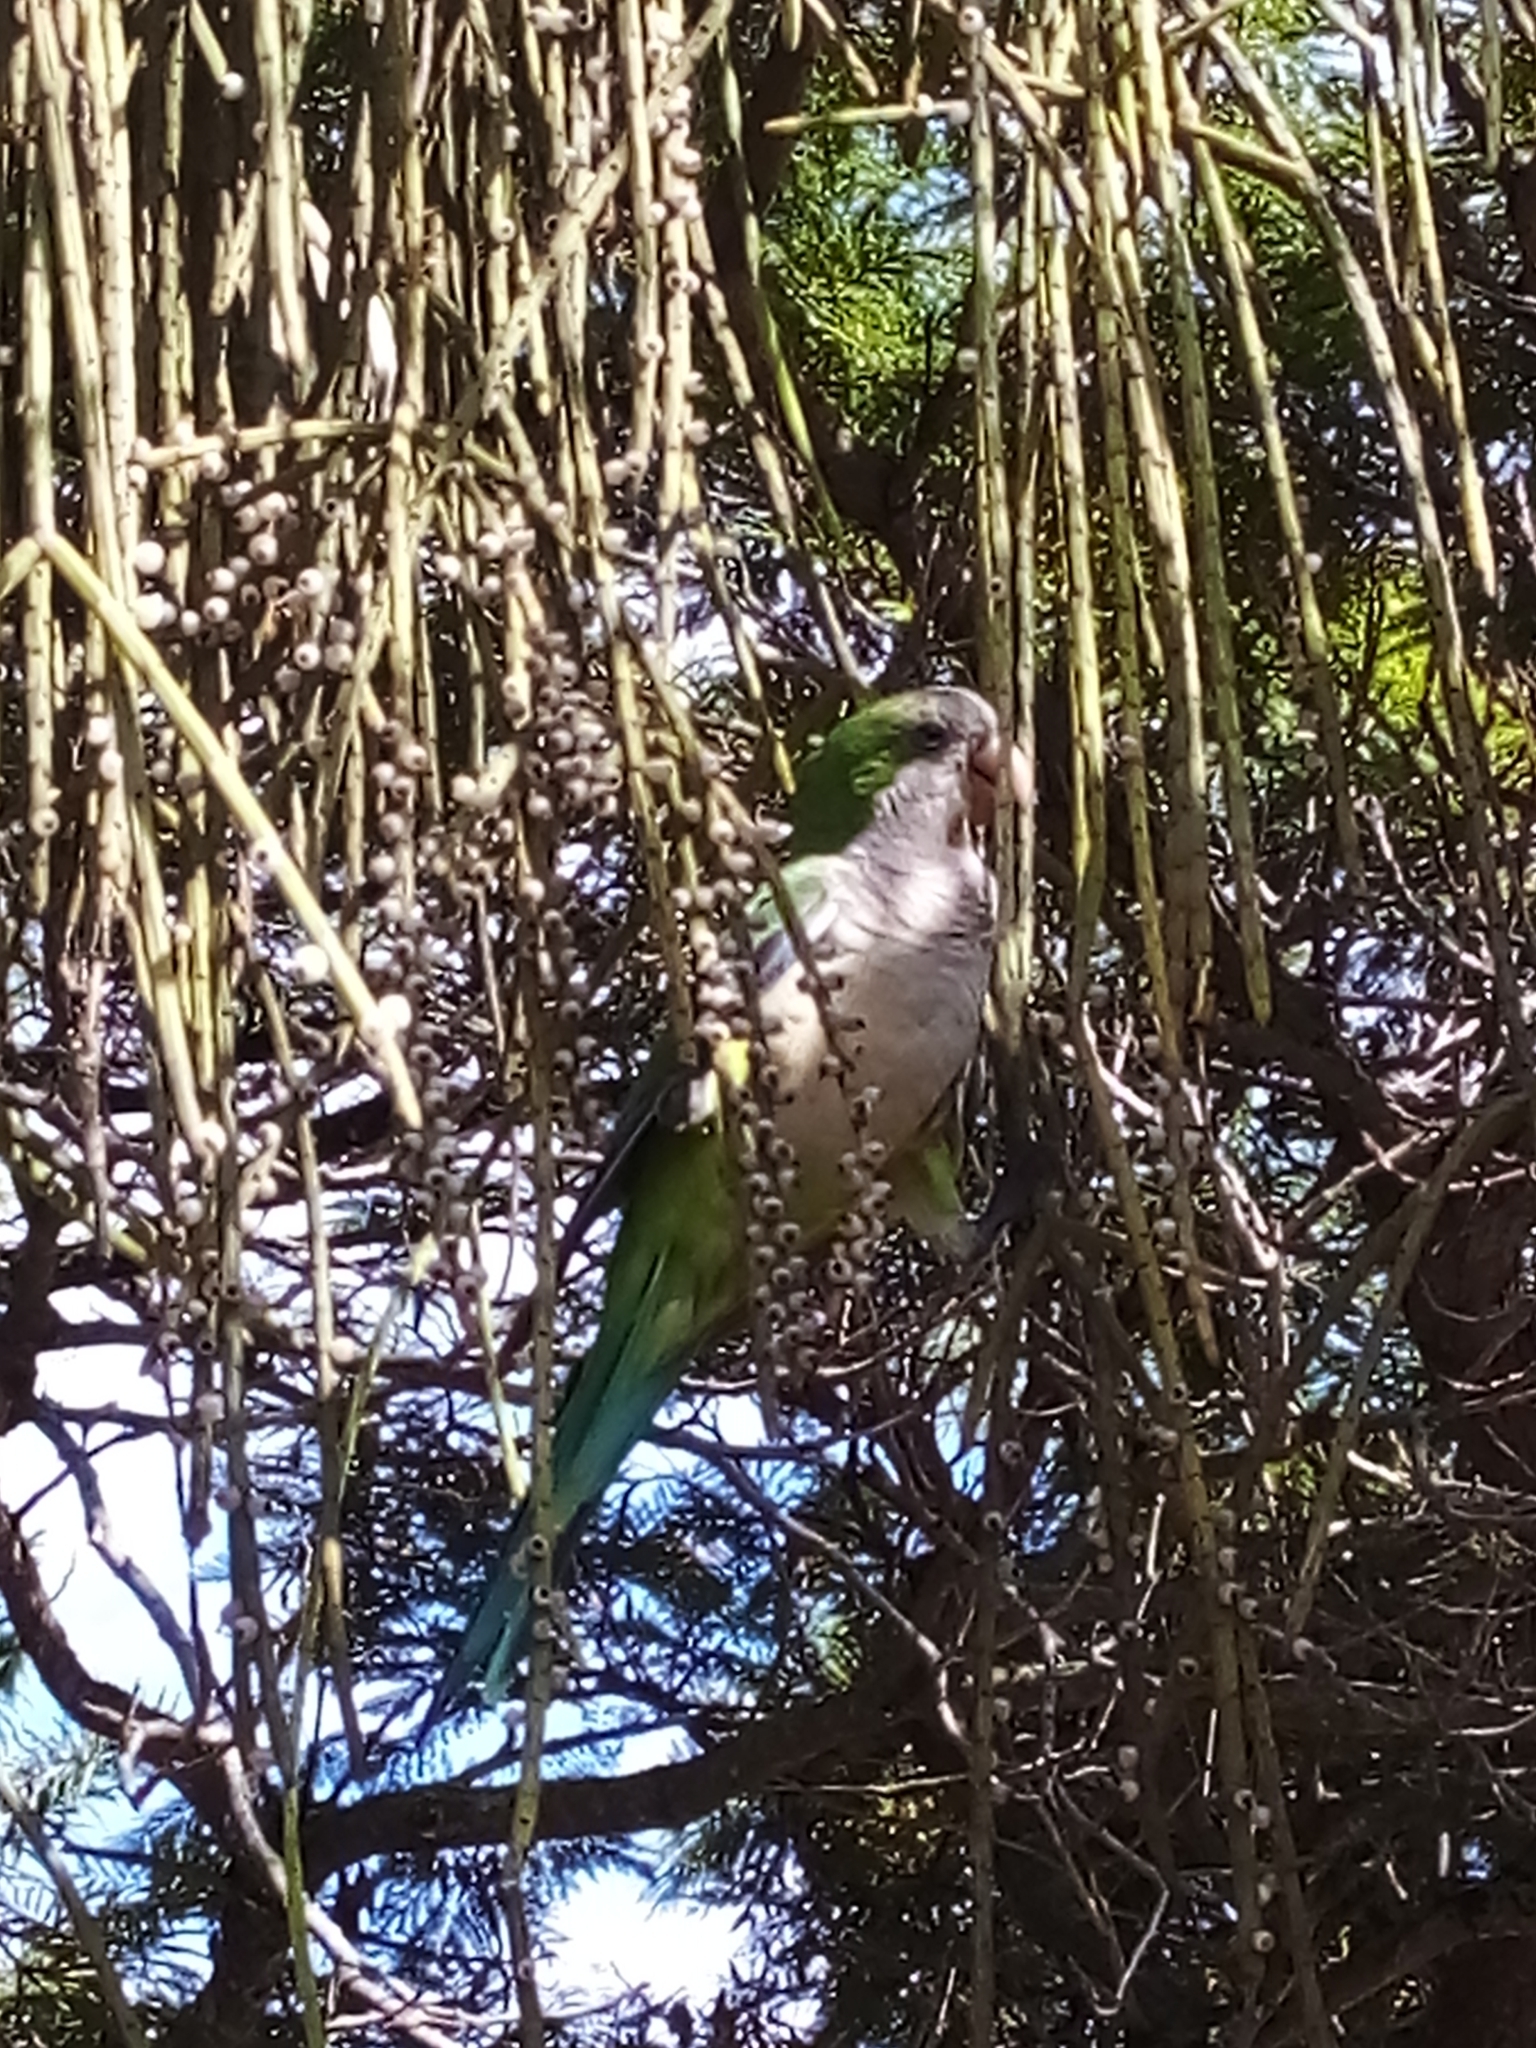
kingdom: Animalia
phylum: Chordata
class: Aves
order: Psittaciformes
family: Psittacidae
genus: Myiopsitta
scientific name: Myiopsitta monachus
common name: Monk parakeet
